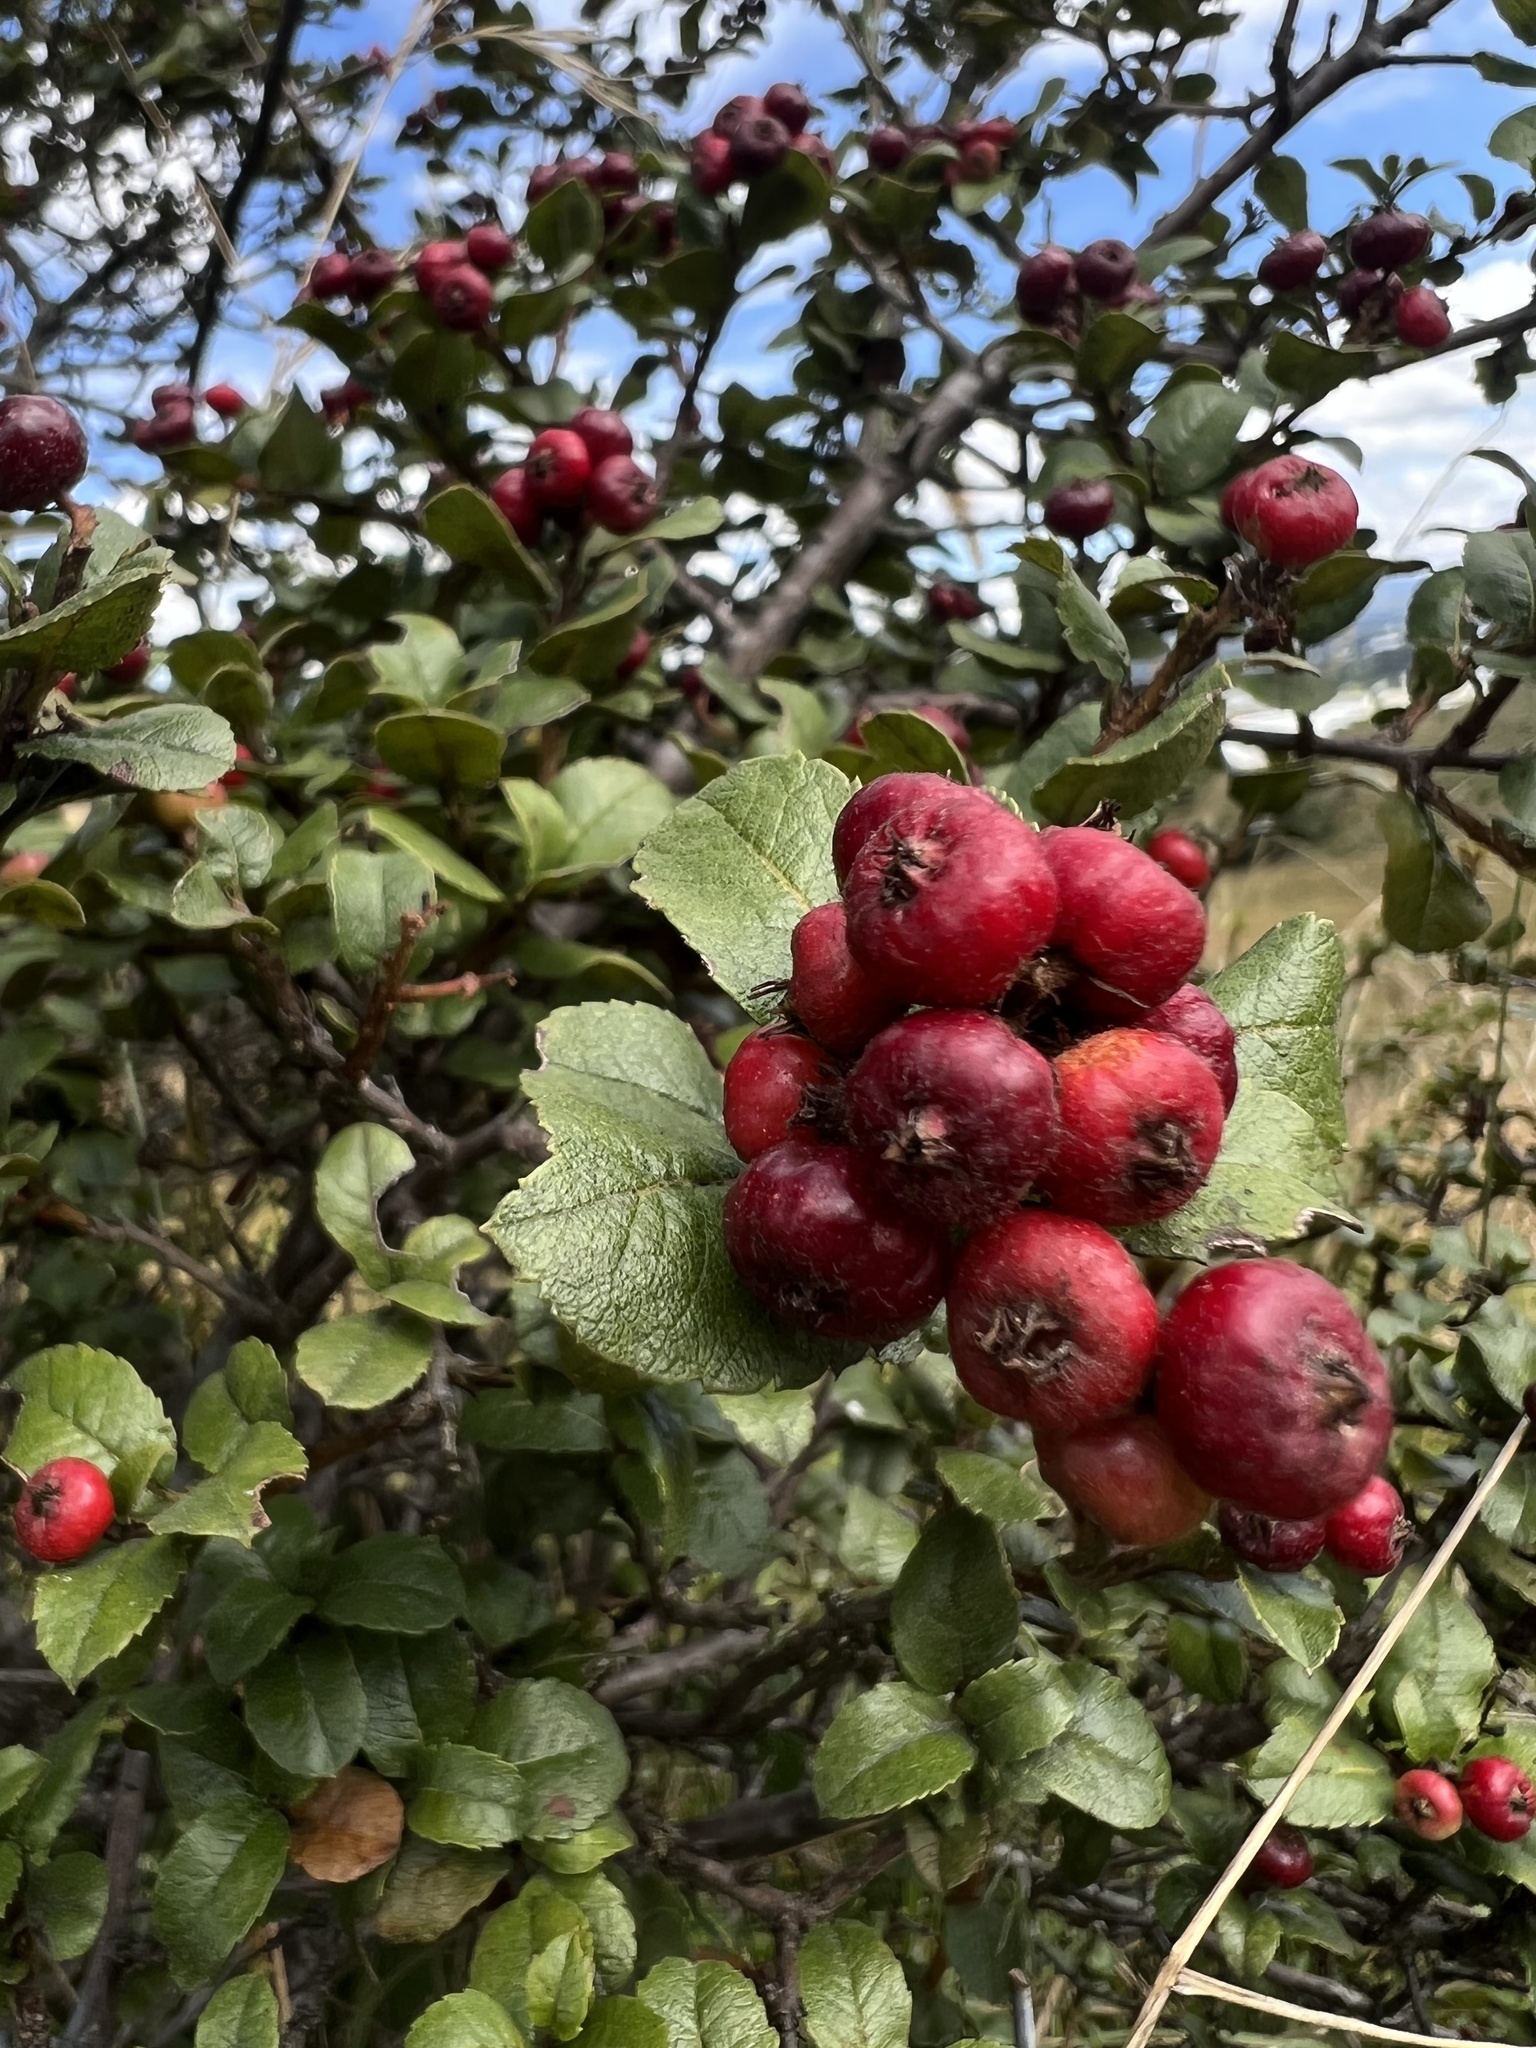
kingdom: Plantae
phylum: Tracheophyta
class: Magnoliopsida
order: Rosales
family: Rosaceae
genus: Hesperomeles
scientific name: Hesperomeles goudotiana
